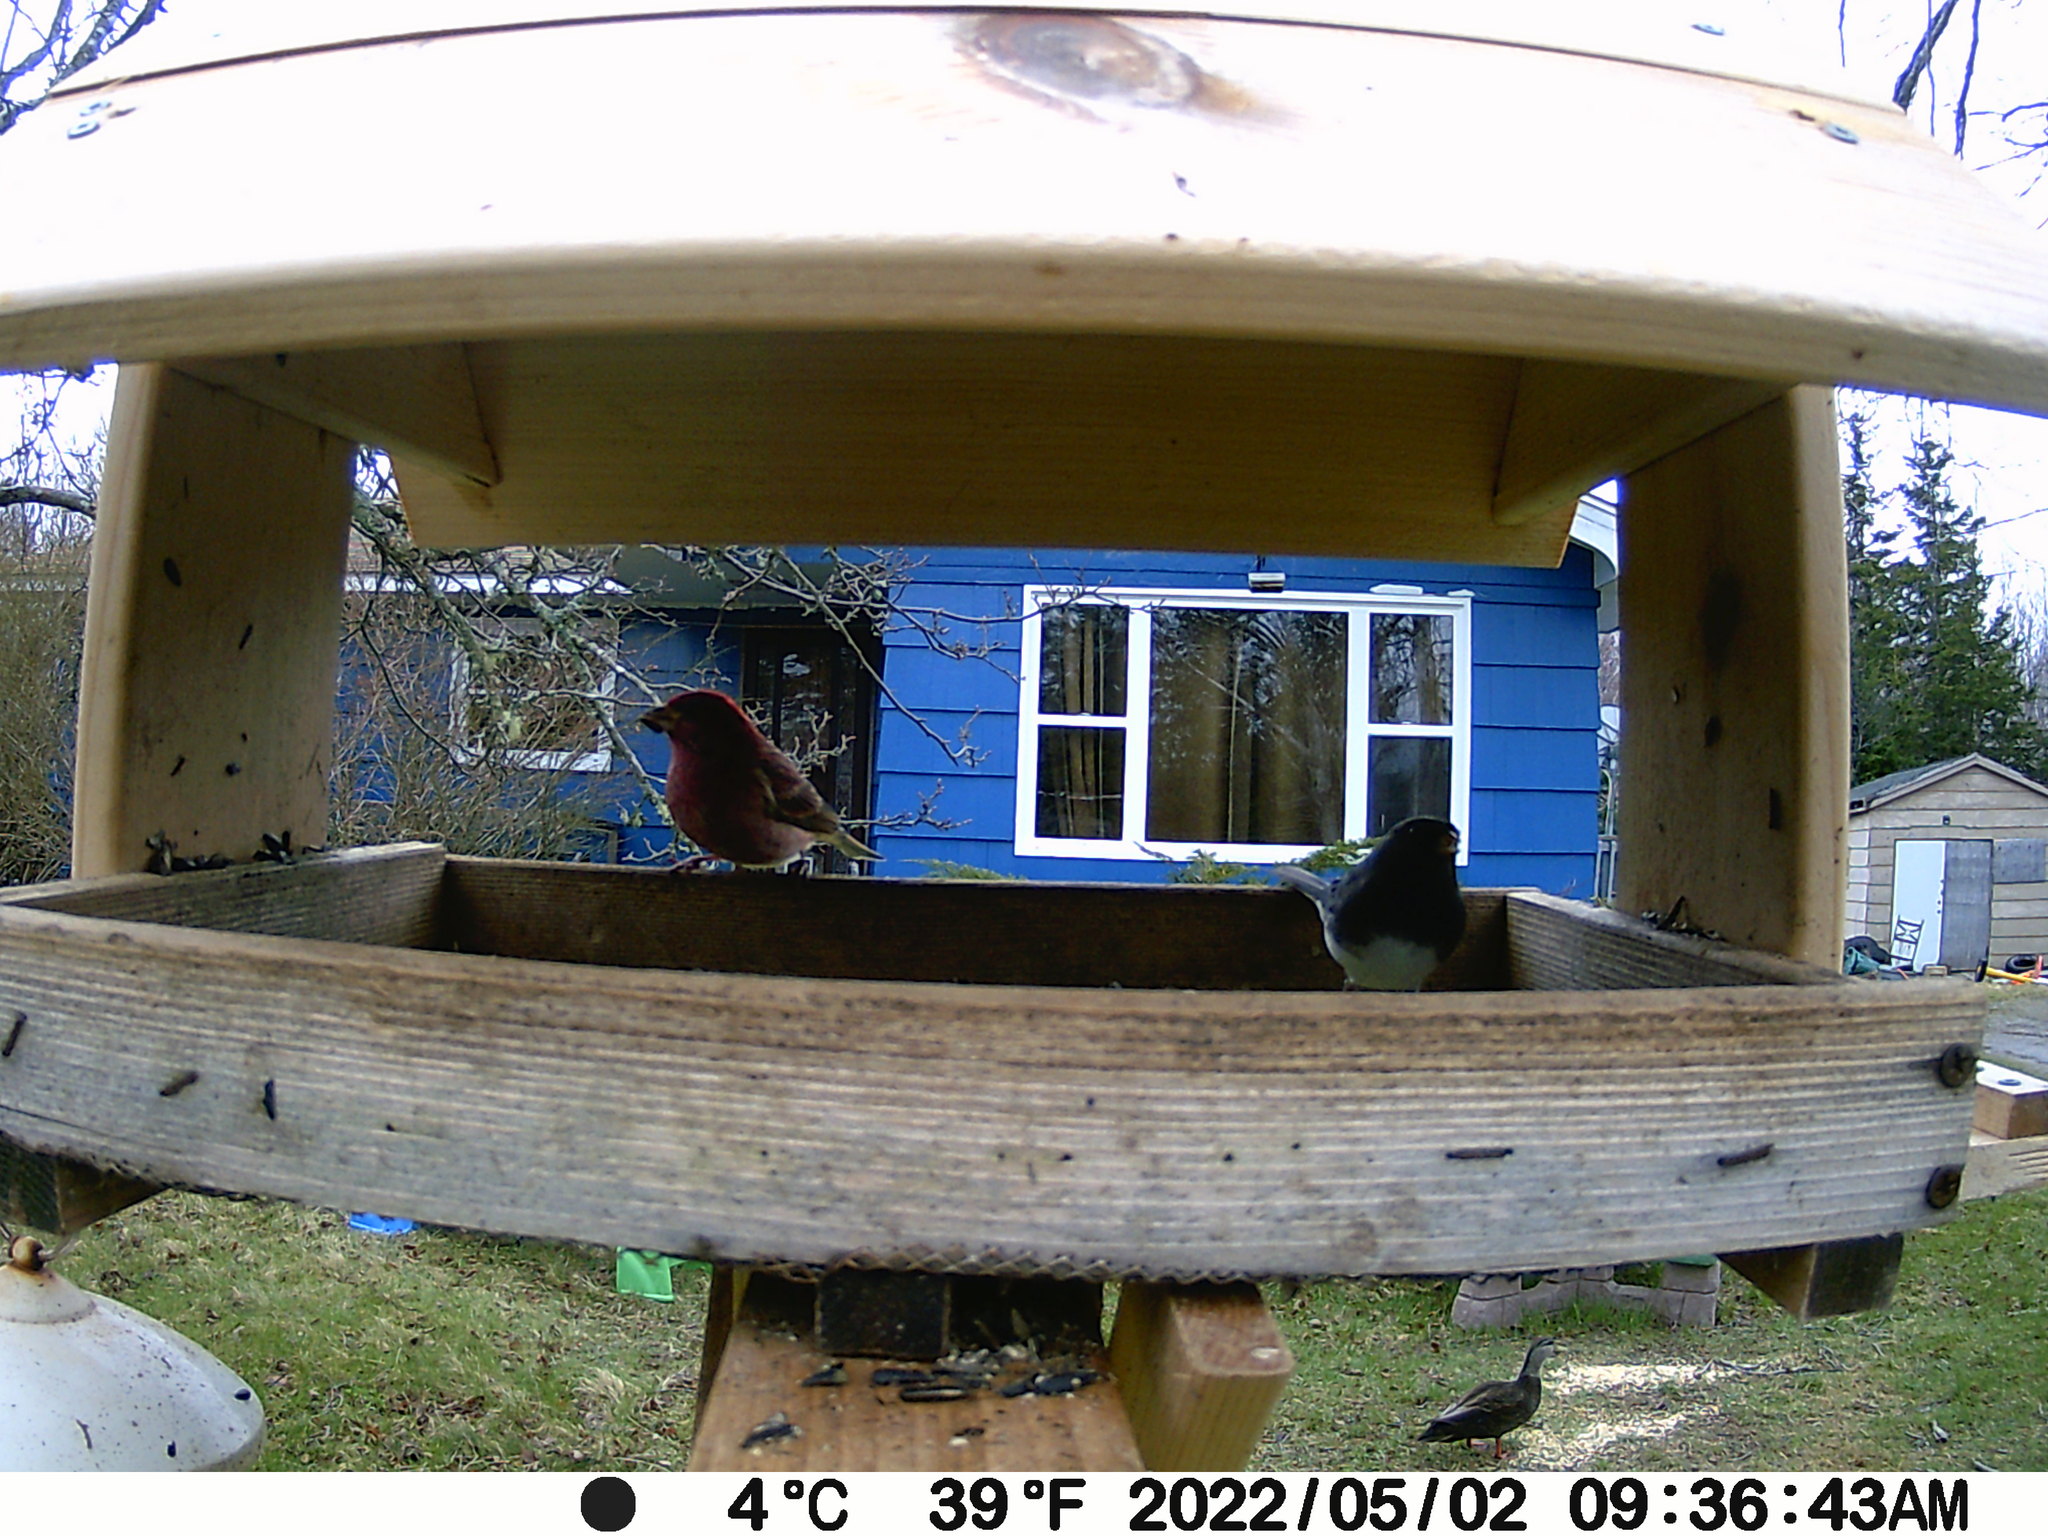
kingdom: Animalia
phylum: Chordata
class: Aves
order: Anseriformes
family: Anatidae
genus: Anas
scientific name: Anas rubripes
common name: American black duck
